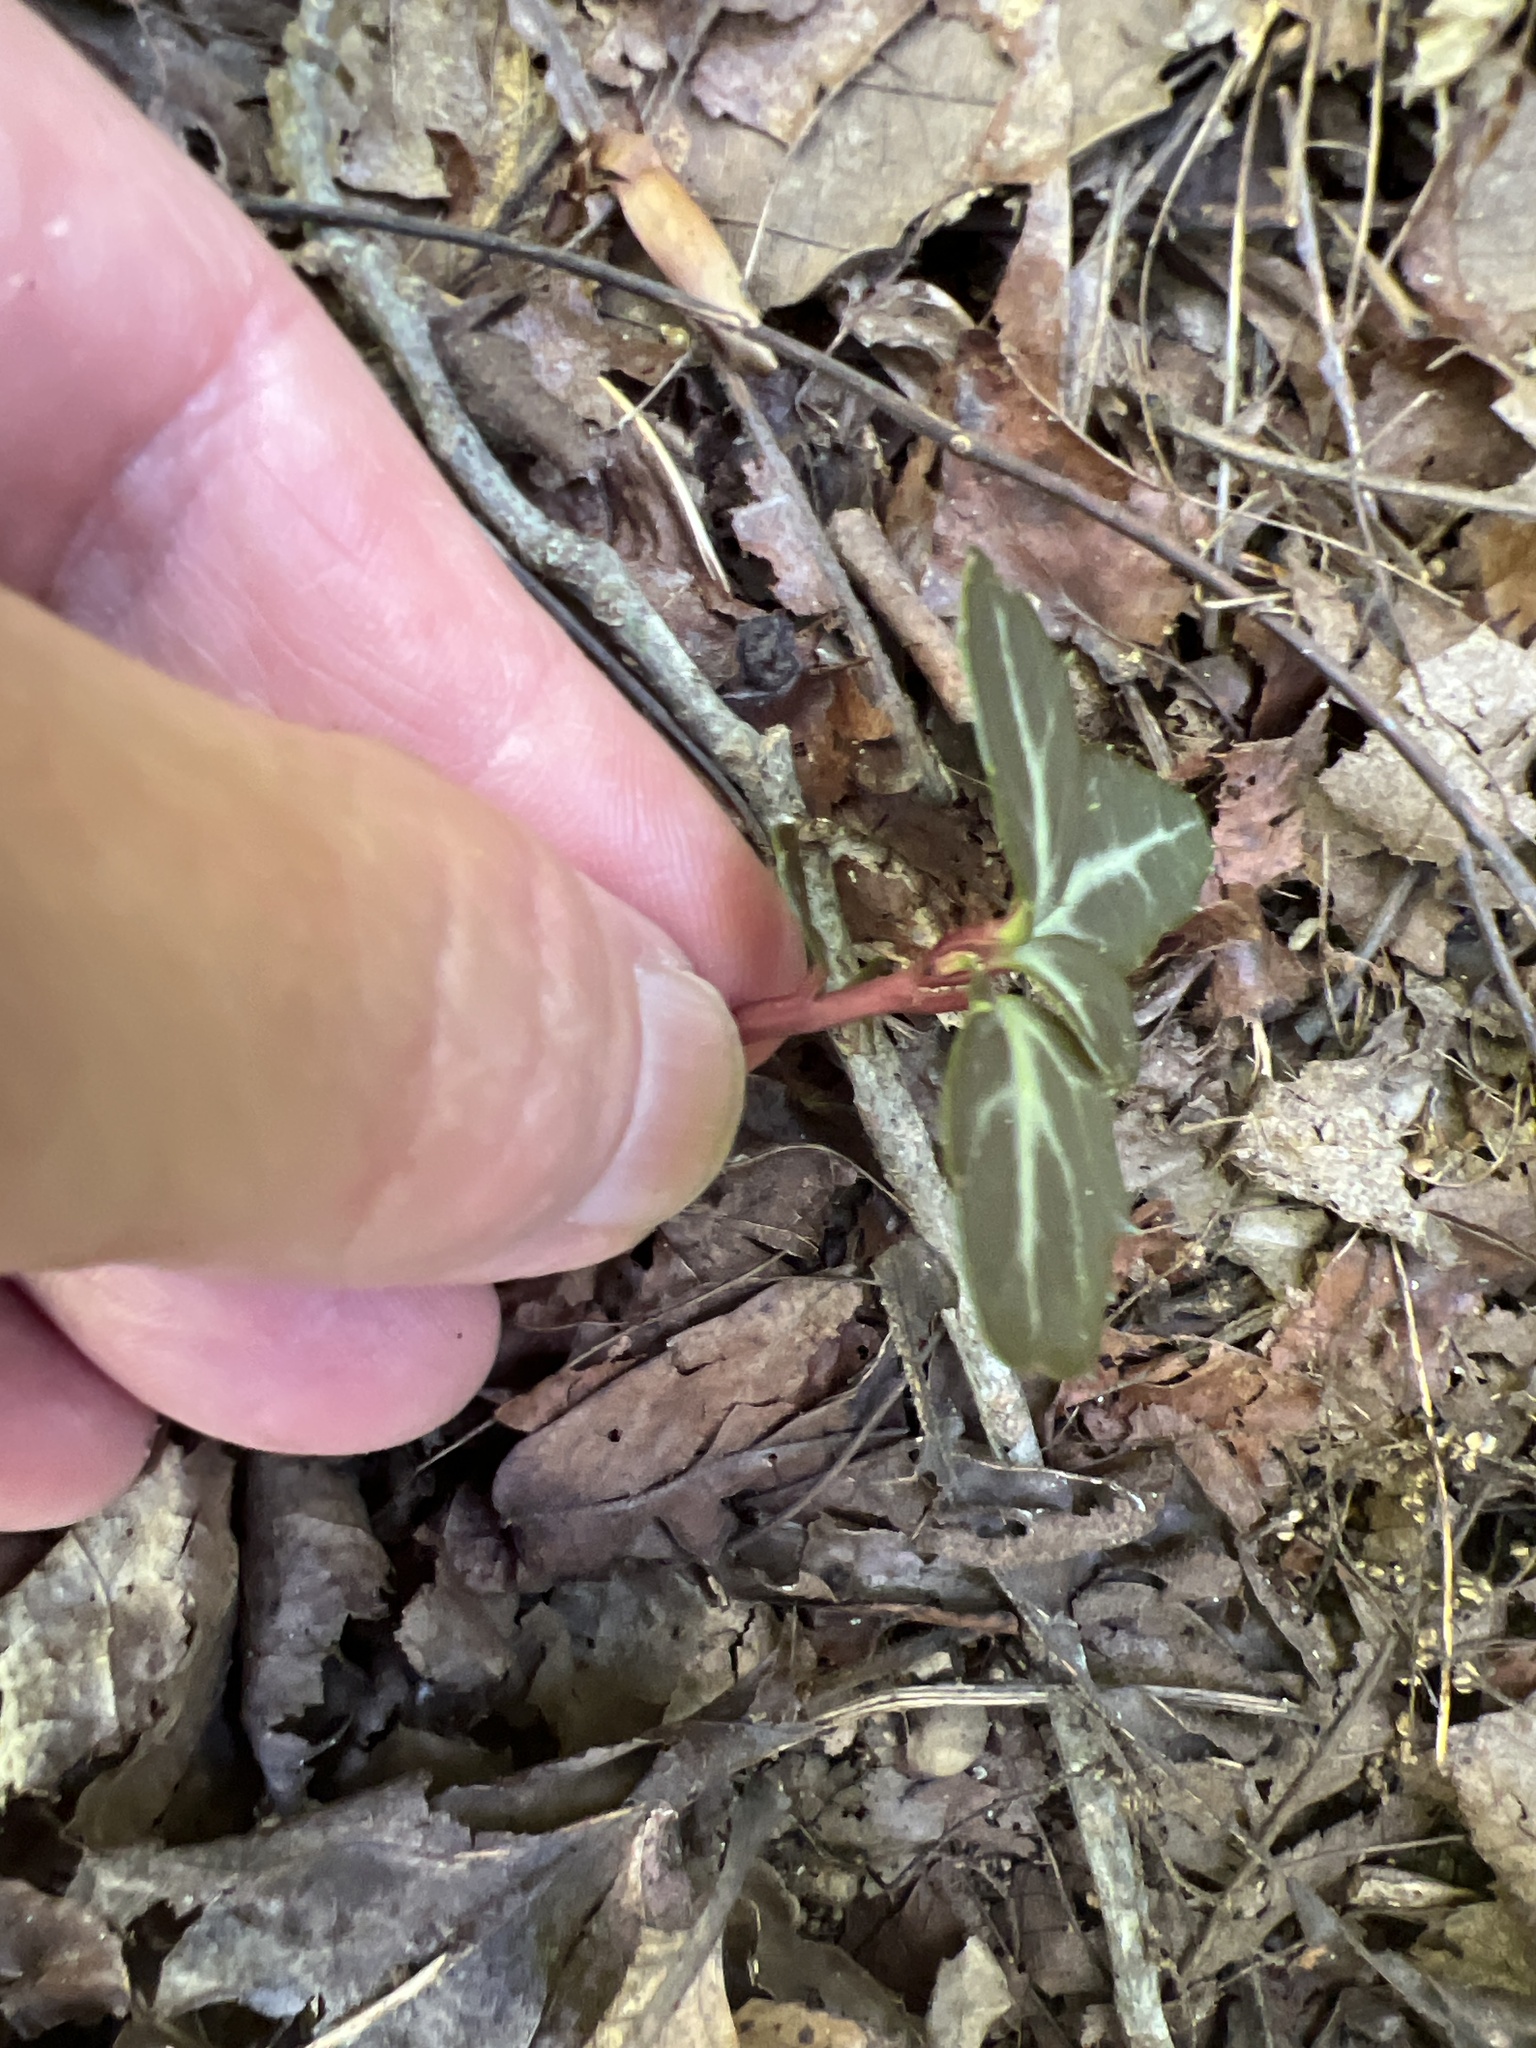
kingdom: Plantae
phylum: Tracheophyta
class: Magnoliopsida
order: Ericales
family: Ericaceae
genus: Chimaphila
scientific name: Chimaphila maculata
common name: Spotted pipsissewa
